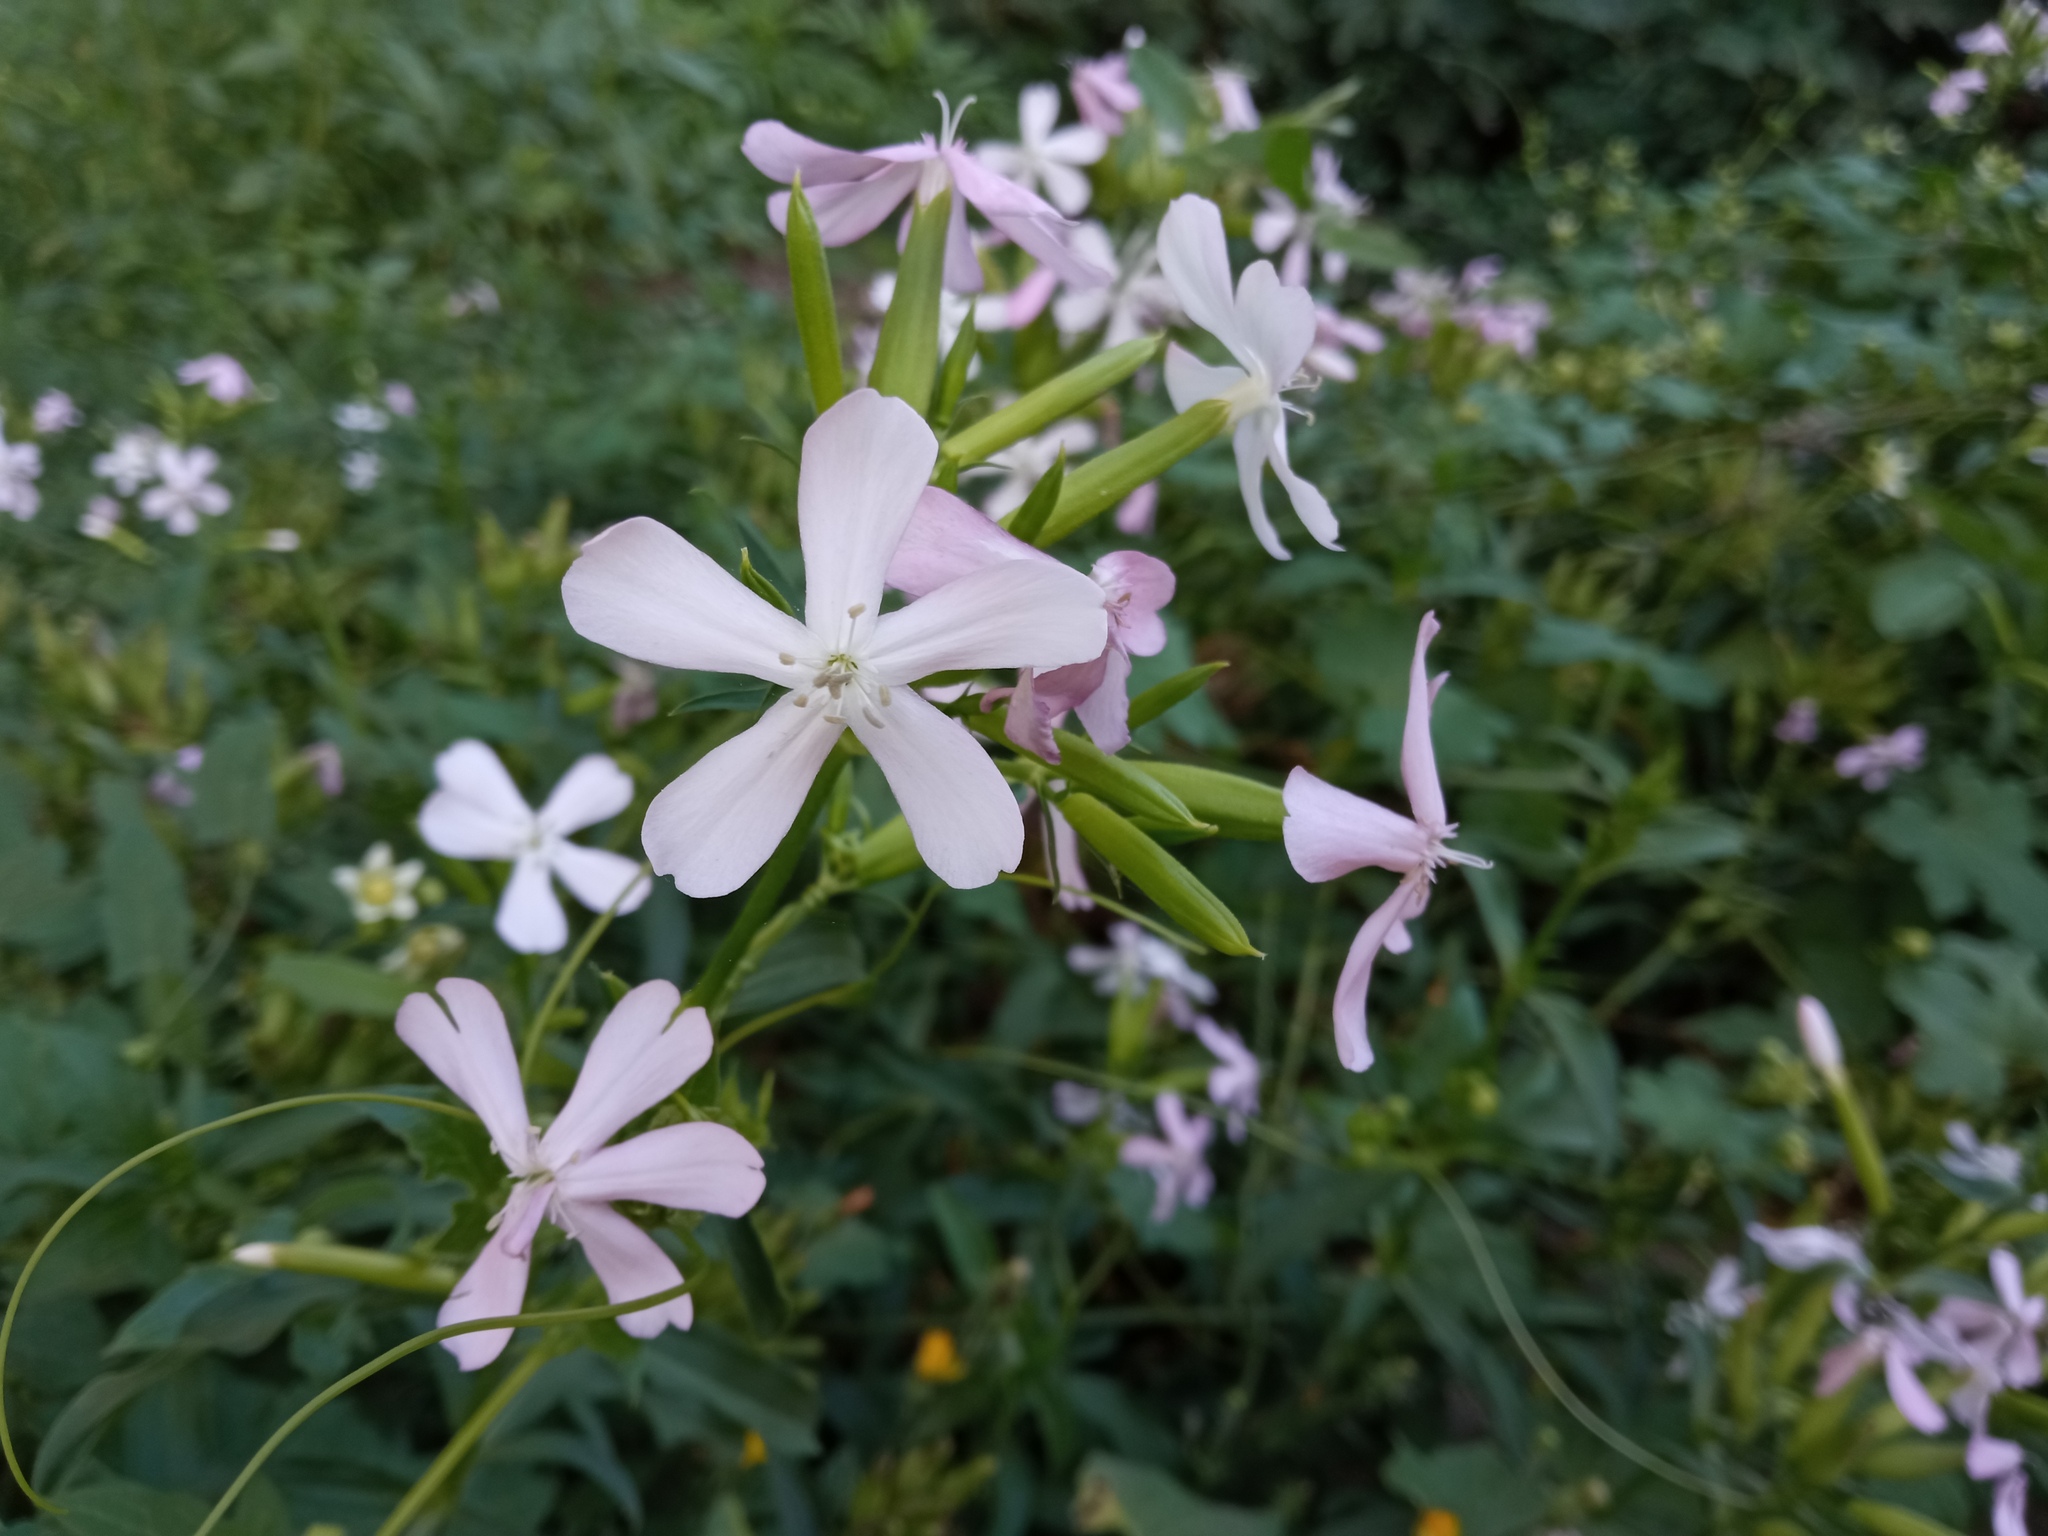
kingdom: Plantae
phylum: Tracheophyta
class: Magnoliopsida
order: Caryophyllales
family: Caryophyllaceae
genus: Saponaria
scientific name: Saponaria officinalis
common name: Soapwort
